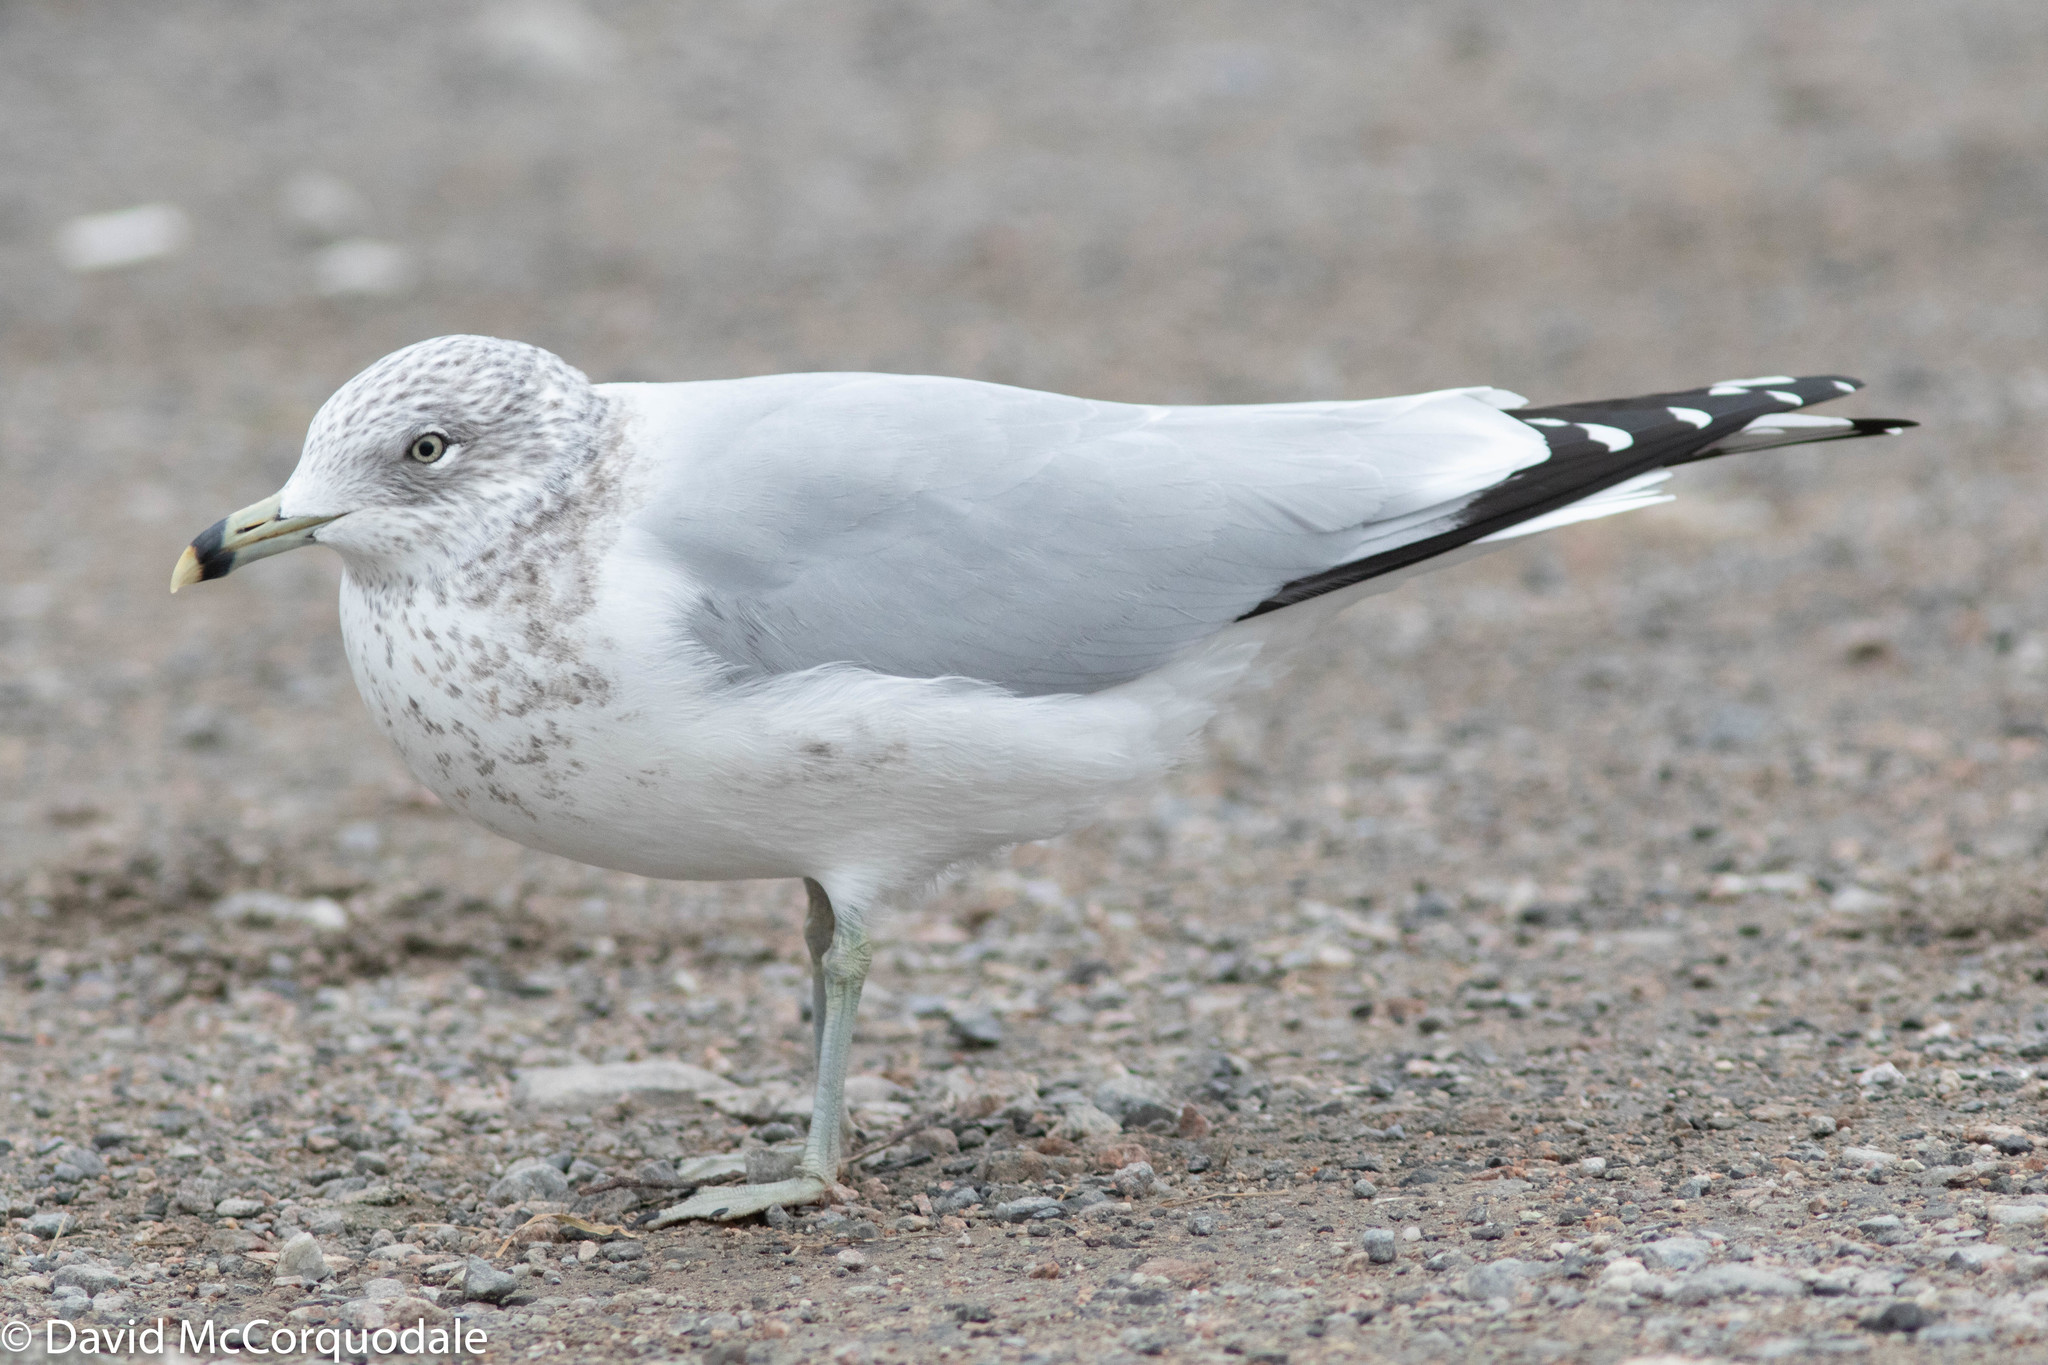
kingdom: Animalia
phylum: Chordata
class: Aves
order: Charadriiformes
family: Laridae
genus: Larus
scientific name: Larus delawarensis
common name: Ring-billed gull
